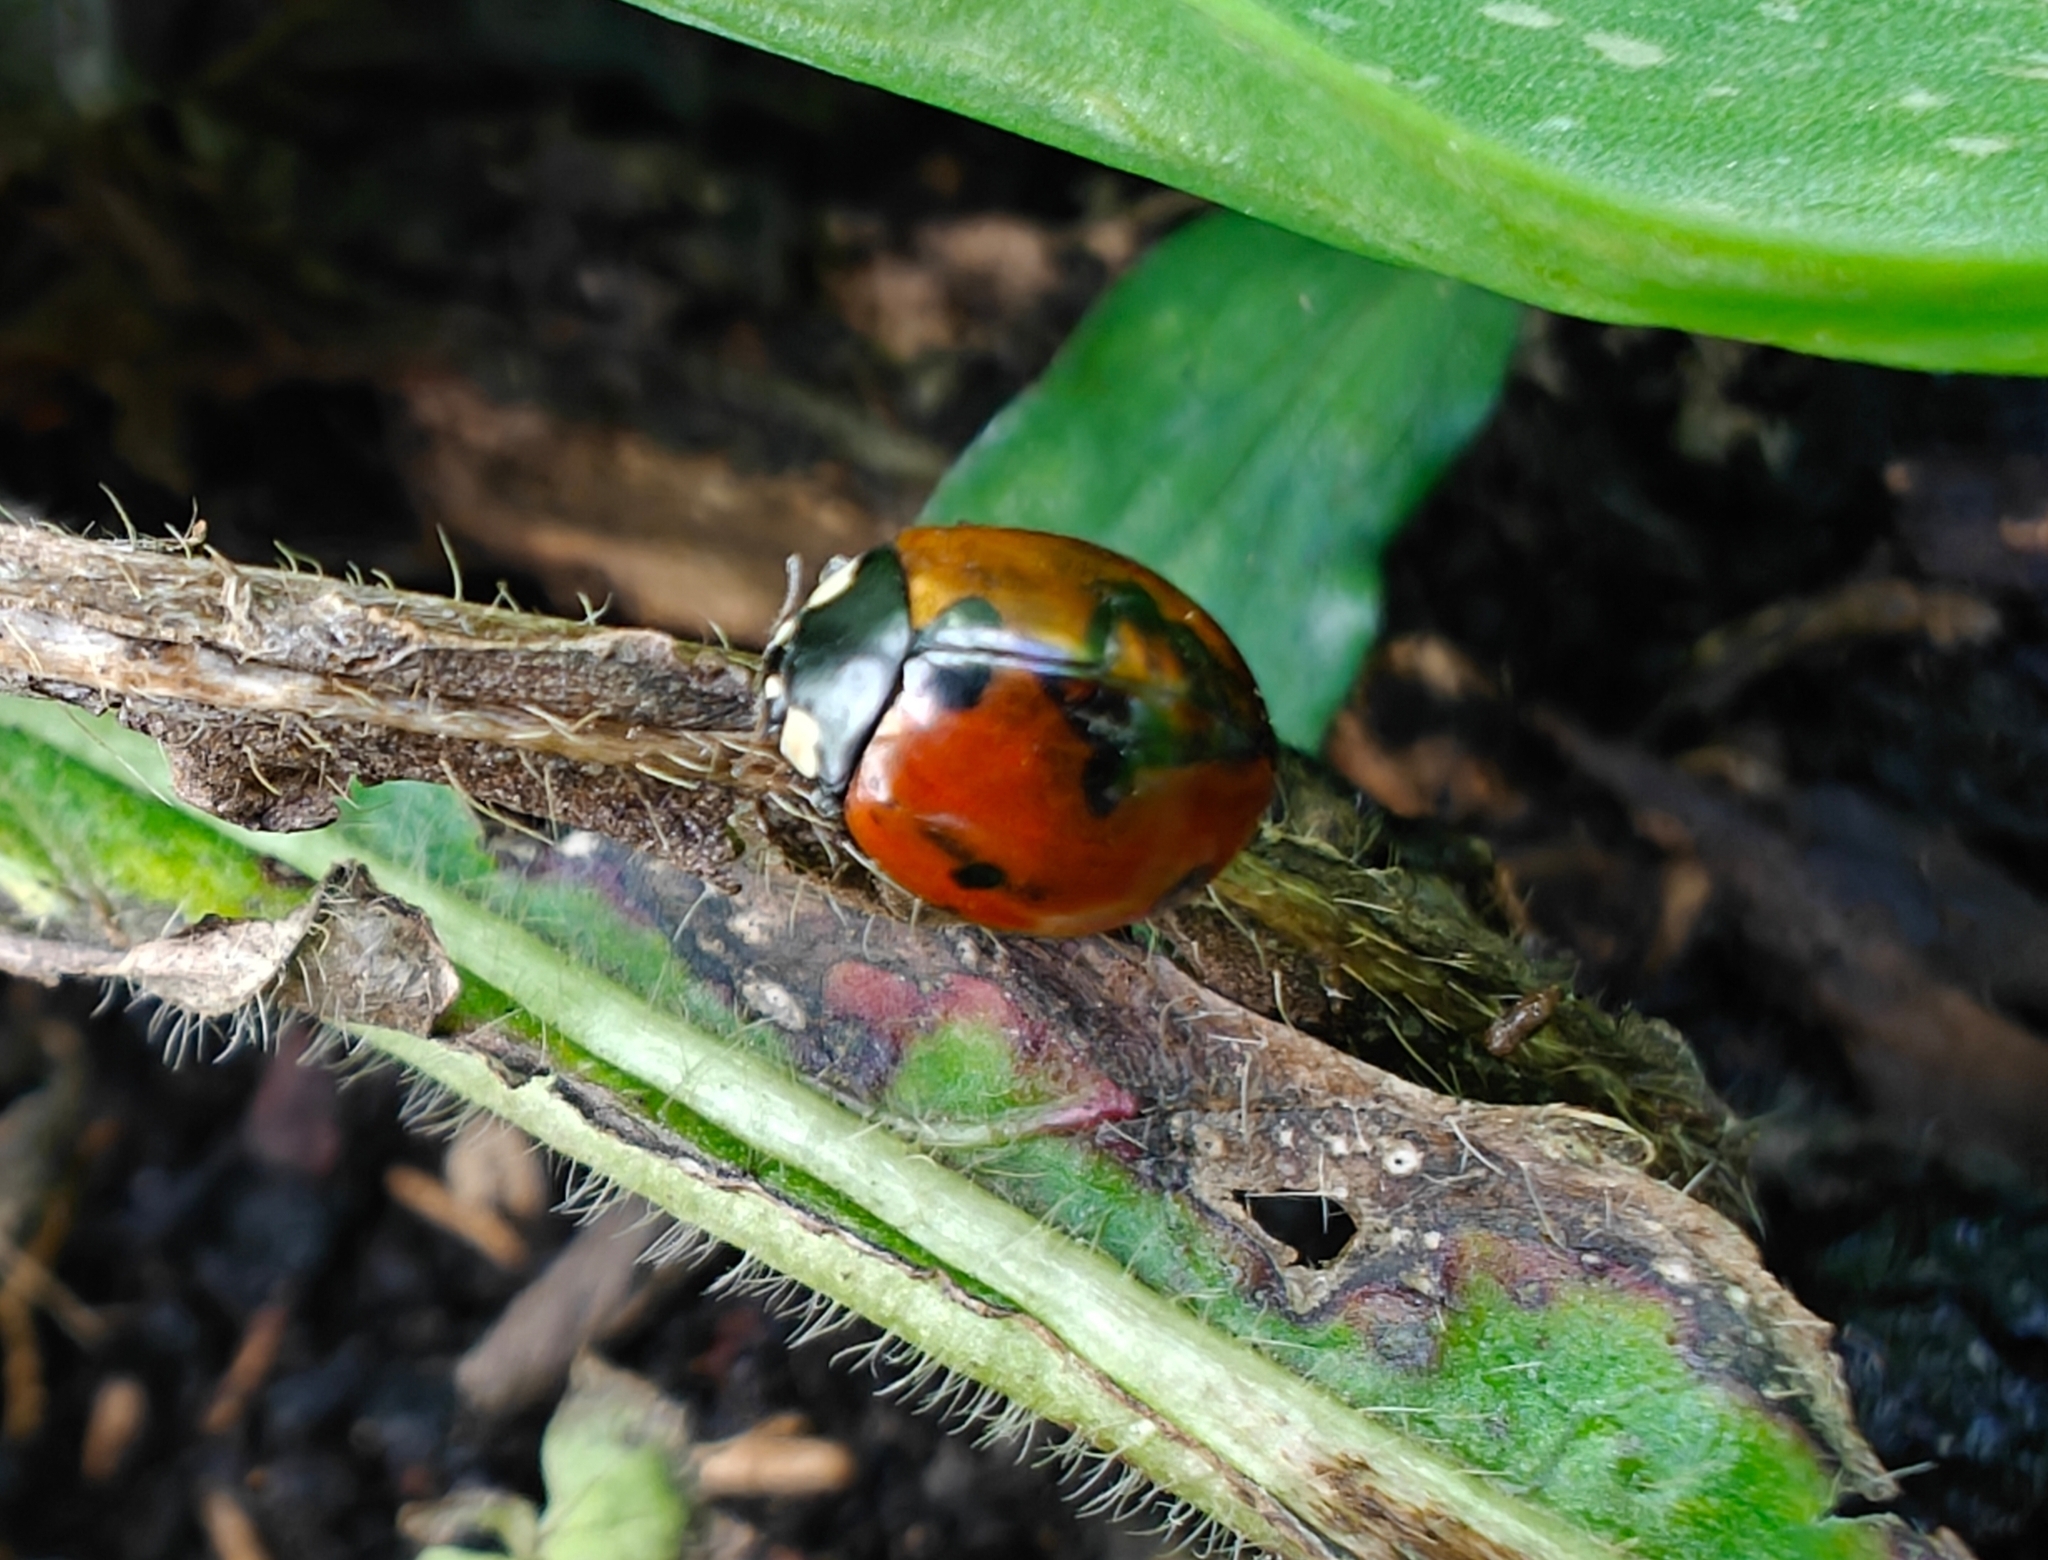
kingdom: Animalia
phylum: Arthropoda
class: Insecta
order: Coleoptera
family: Coccinellidae
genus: Coccinella
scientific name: Coccinella septempunctata
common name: Sevenspotted lady beetle
